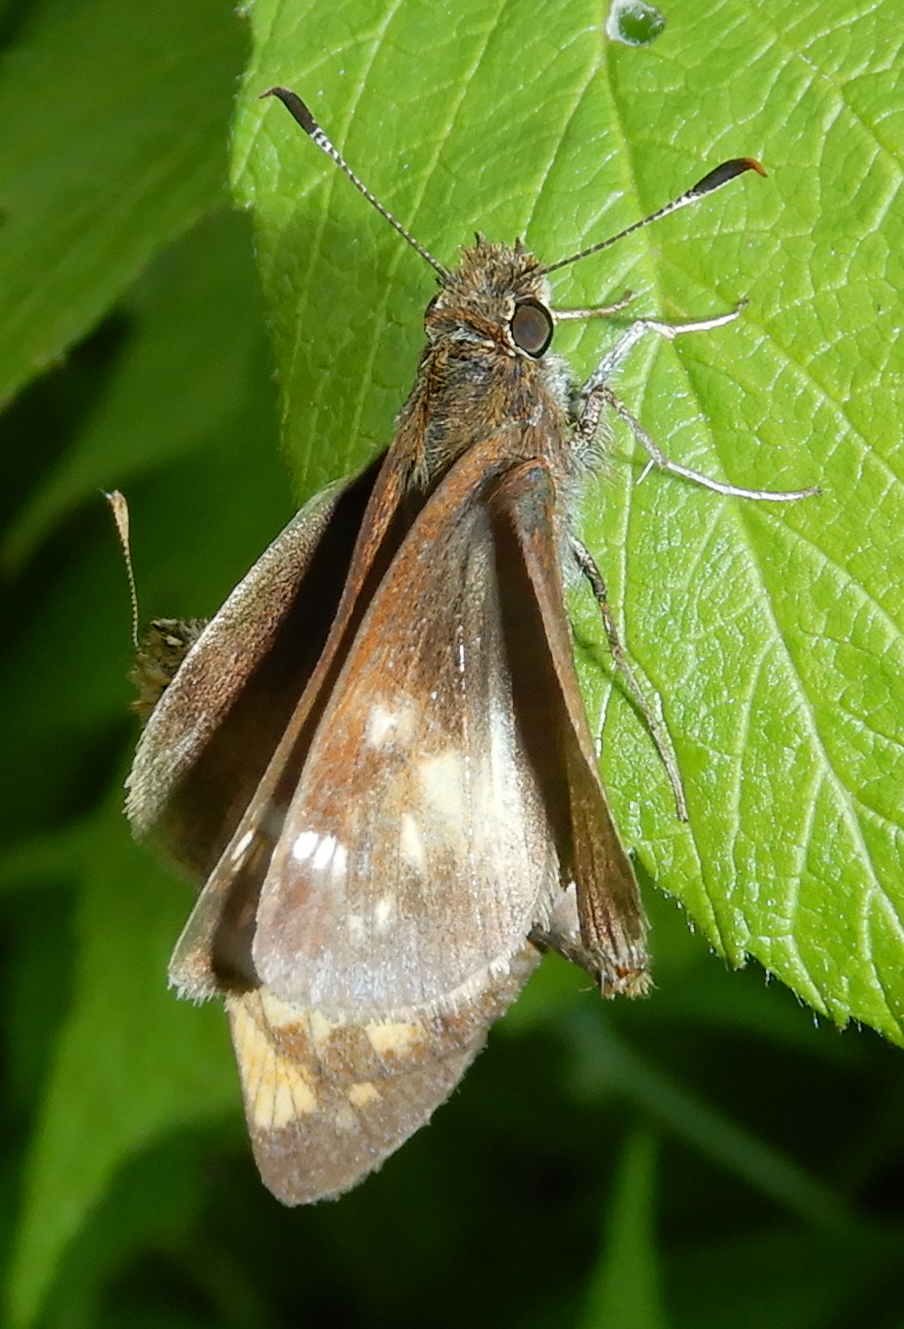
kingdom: Animalia
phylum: Arthropoda
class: Insecta
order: Lepidoptera
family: Hesperiidae
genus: Lon
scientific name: Lon hobomok
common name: Hobomok skipper
